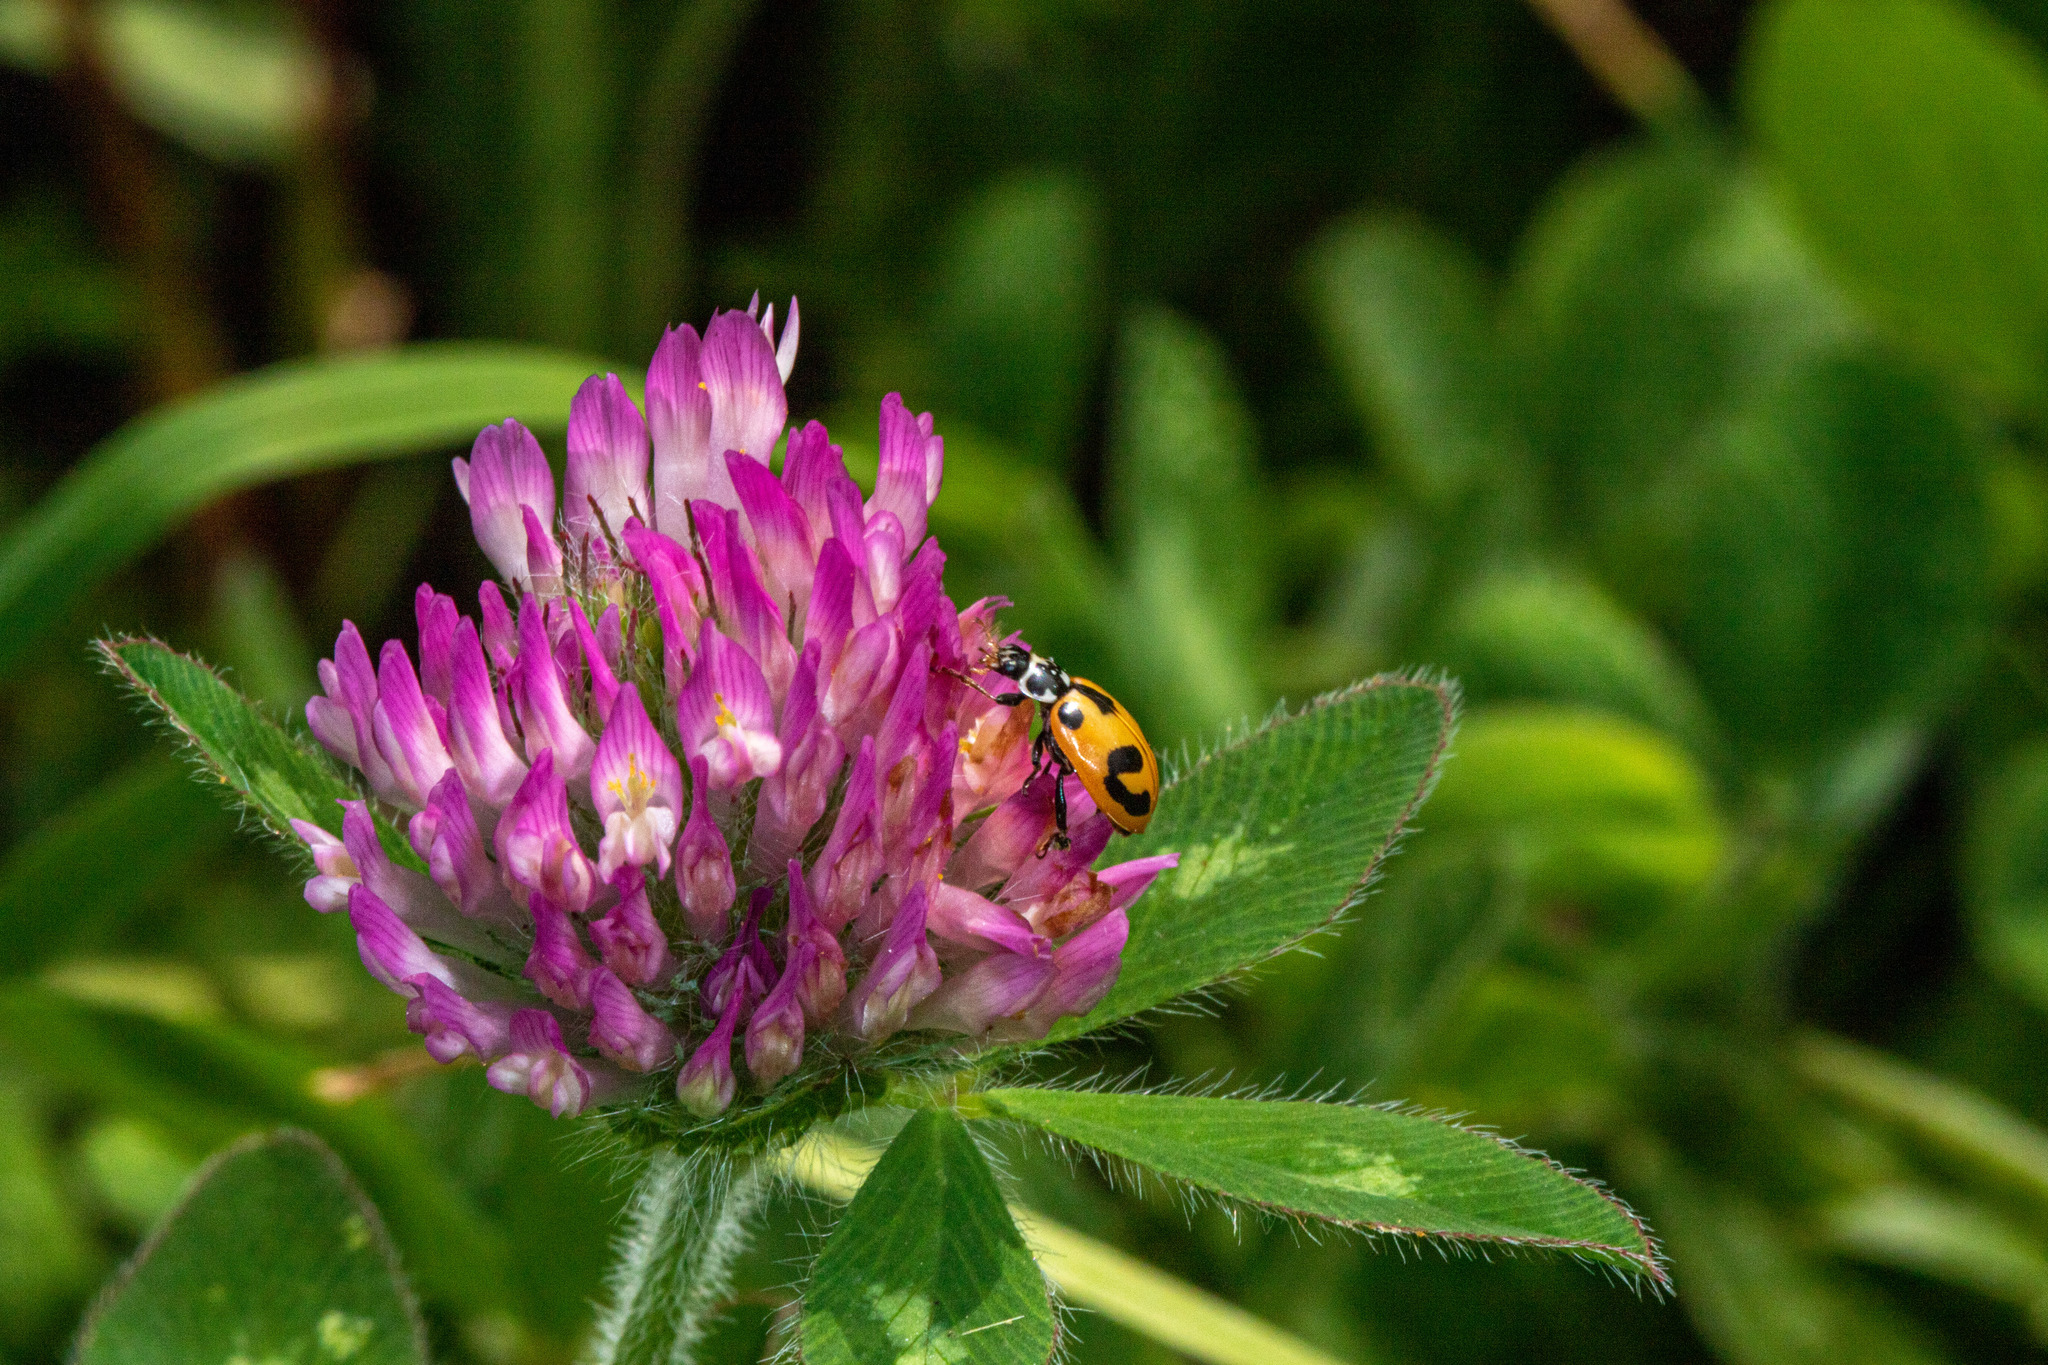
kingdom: Animalia
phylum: Arthropoda
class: Insecta
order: Coleoptera
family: Coccinellidae
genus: Hippodamia
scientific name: Hippodamia parenthesis
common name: Parenthesis lady beetle
